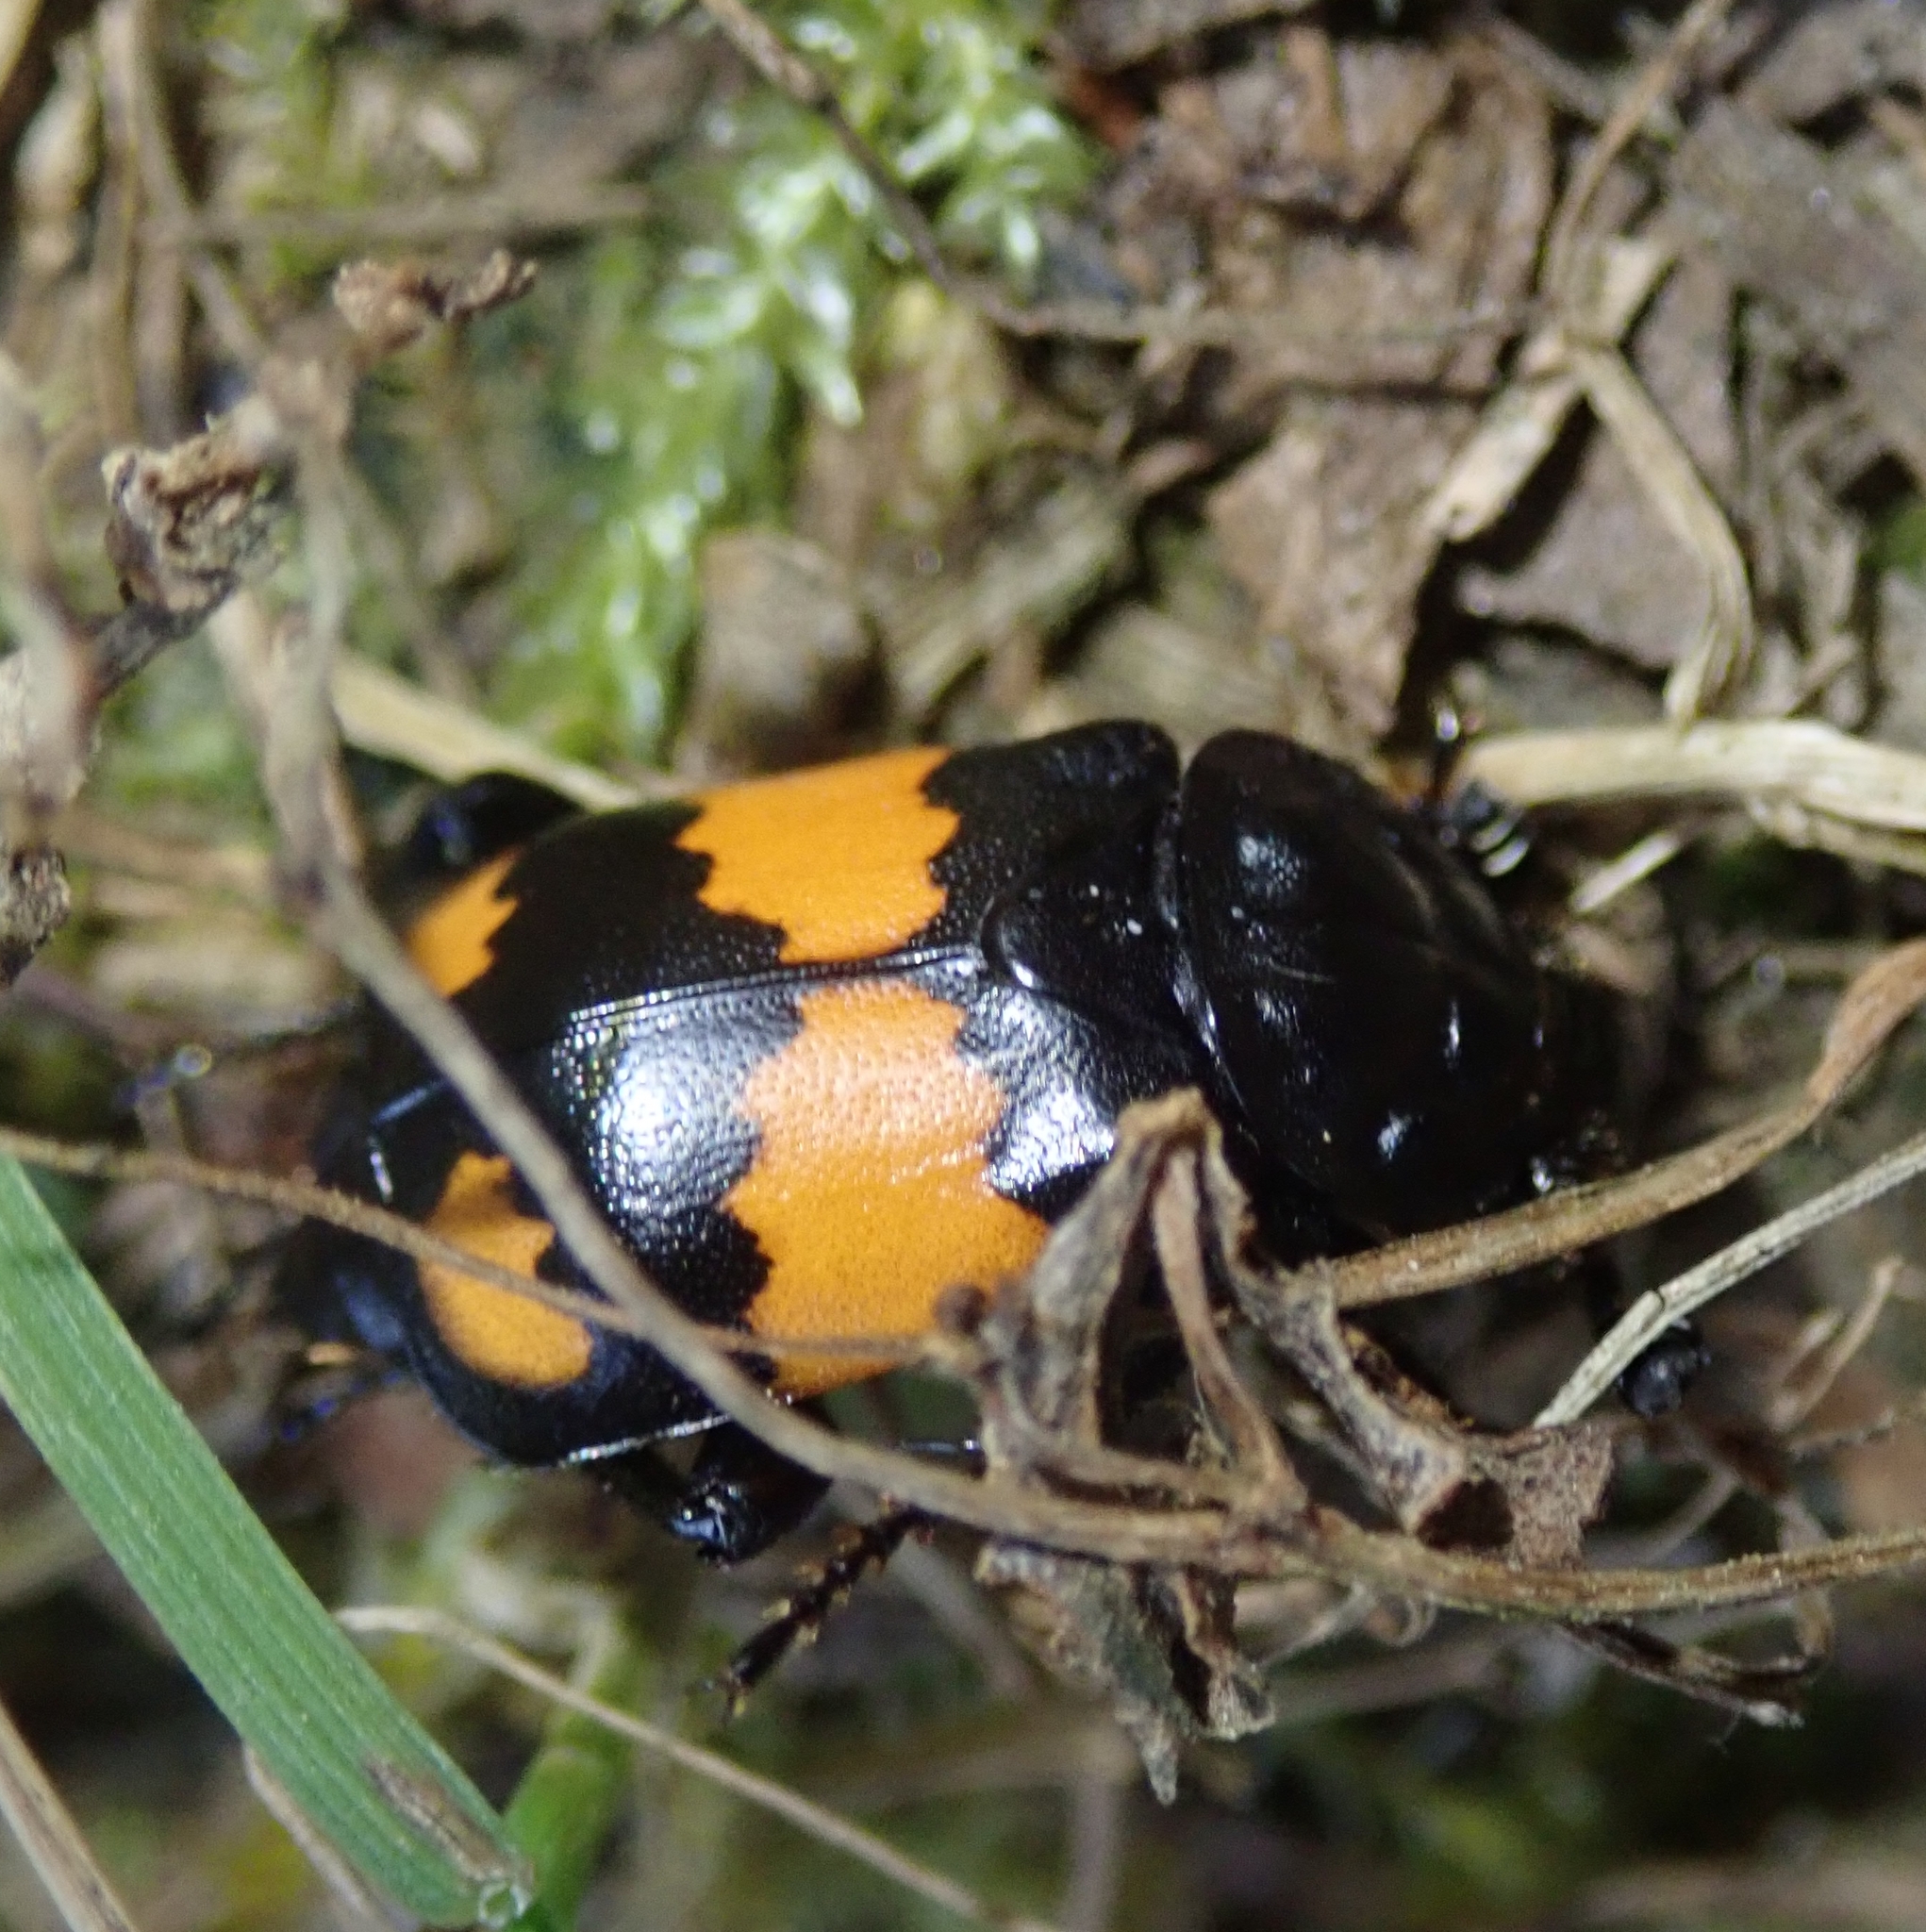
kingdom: Animalia
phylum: Arthropoda
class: Insecta
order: Coleoptera
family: Staphylinidae
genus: Nicrophorus
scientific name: Nicrophorus vespilloides
